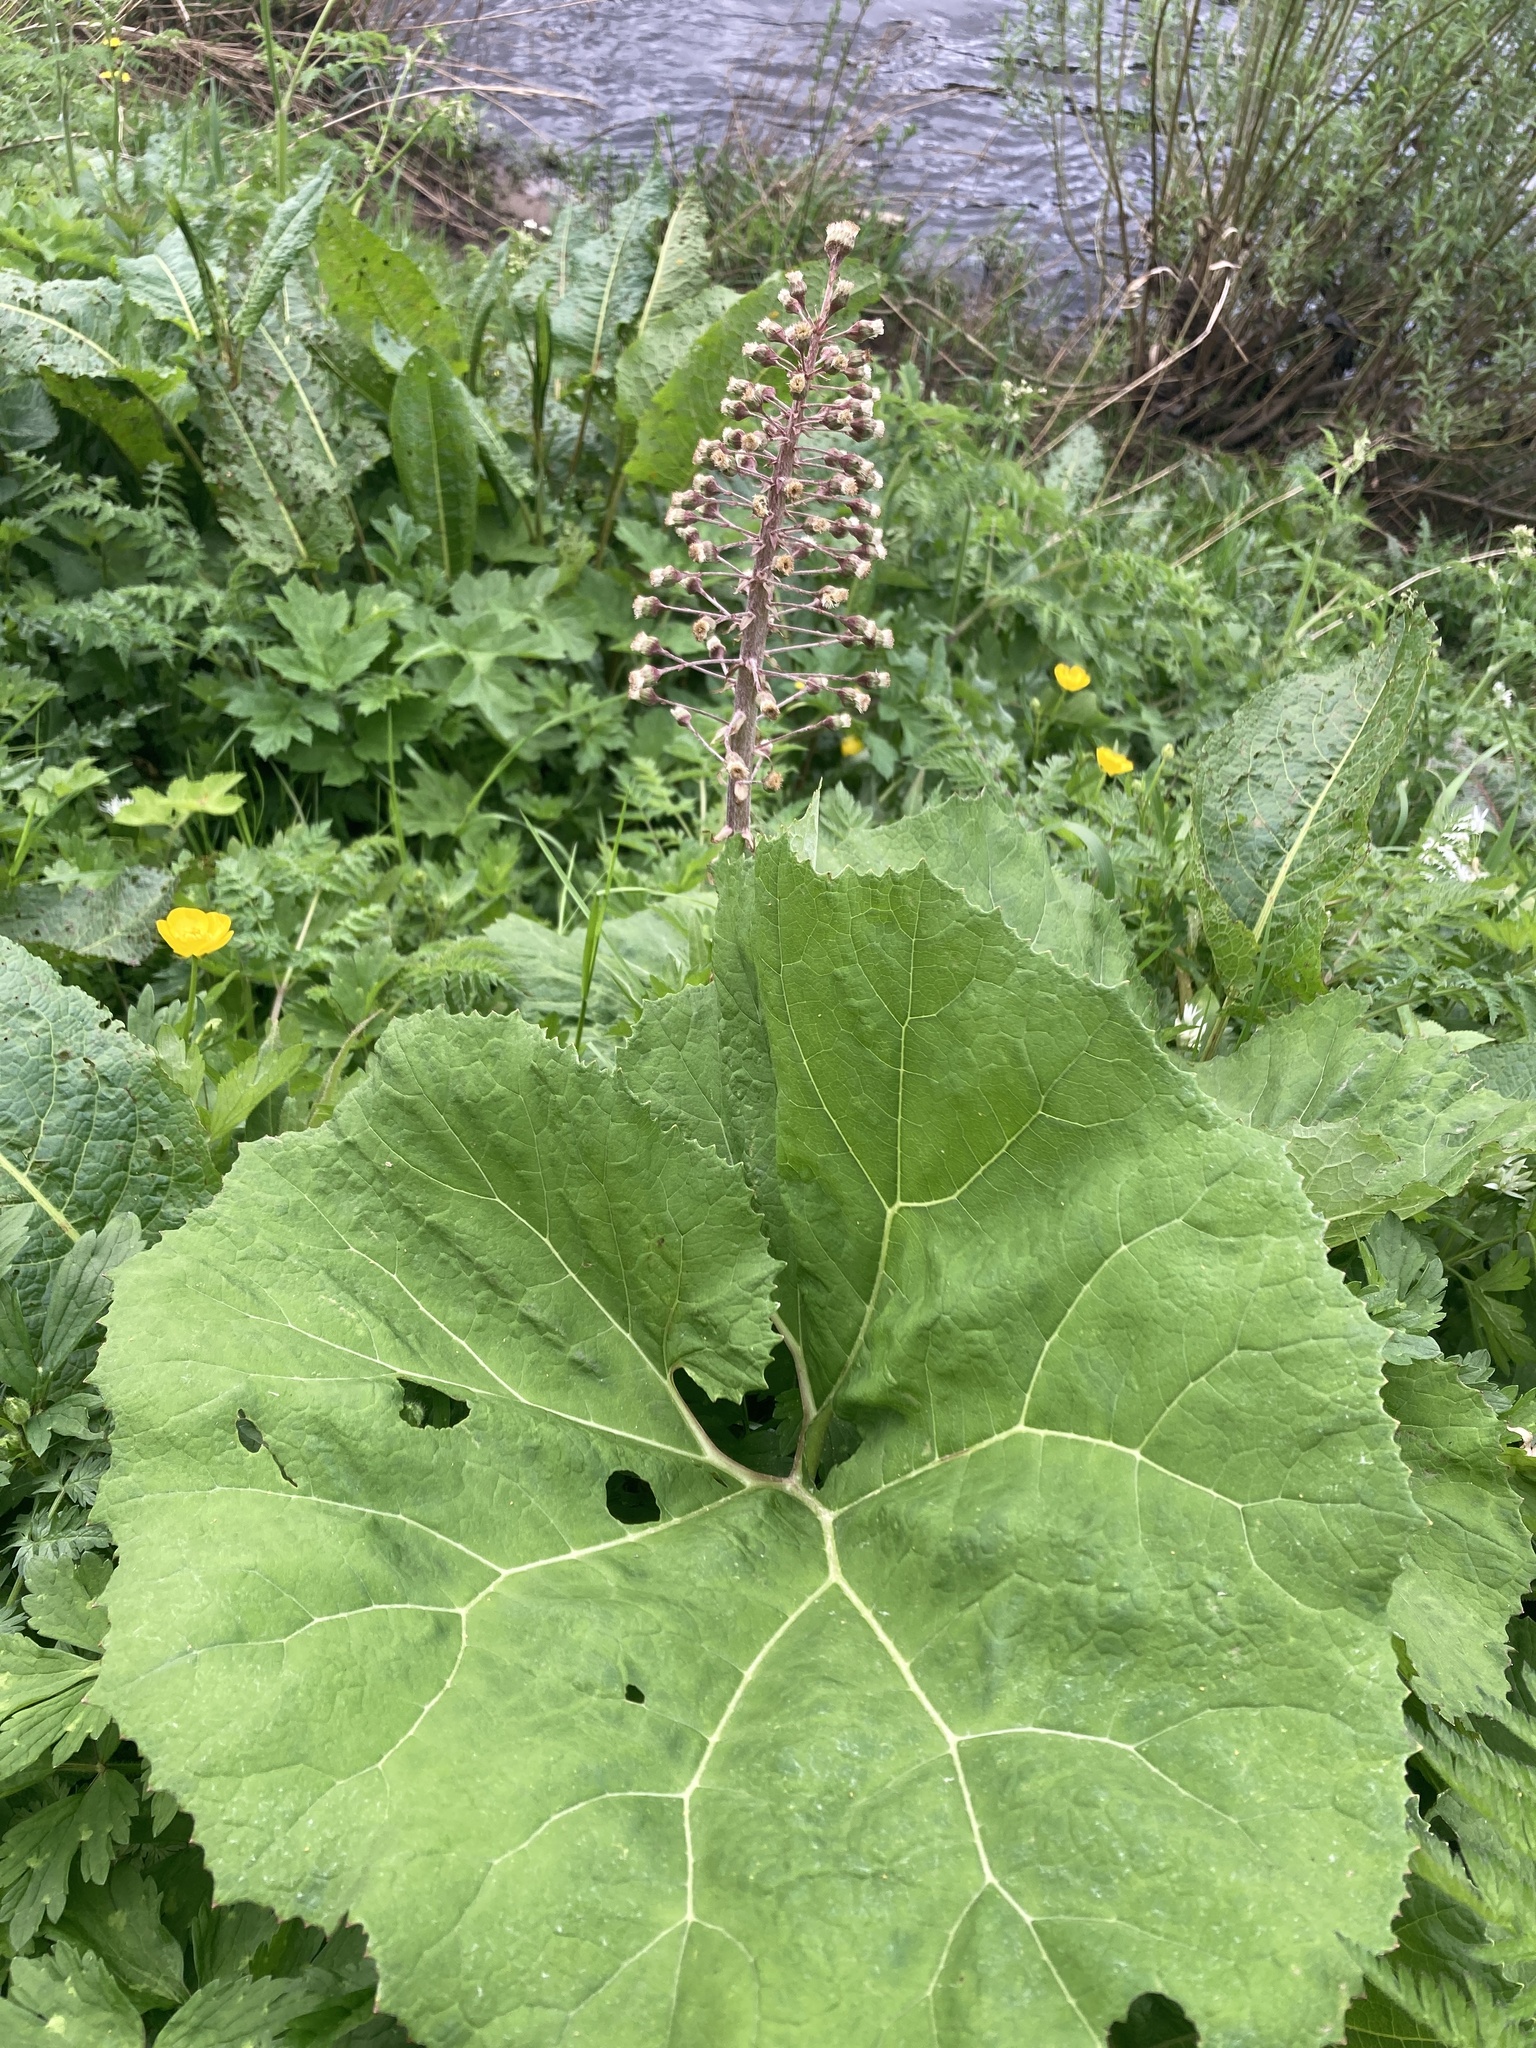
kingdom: Plantae
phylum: Tracheophyta
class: Magnoliopsida
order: Asterales
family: Asteraceae
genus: Petasites
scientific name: Petasites hybridus
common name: Butterbur
